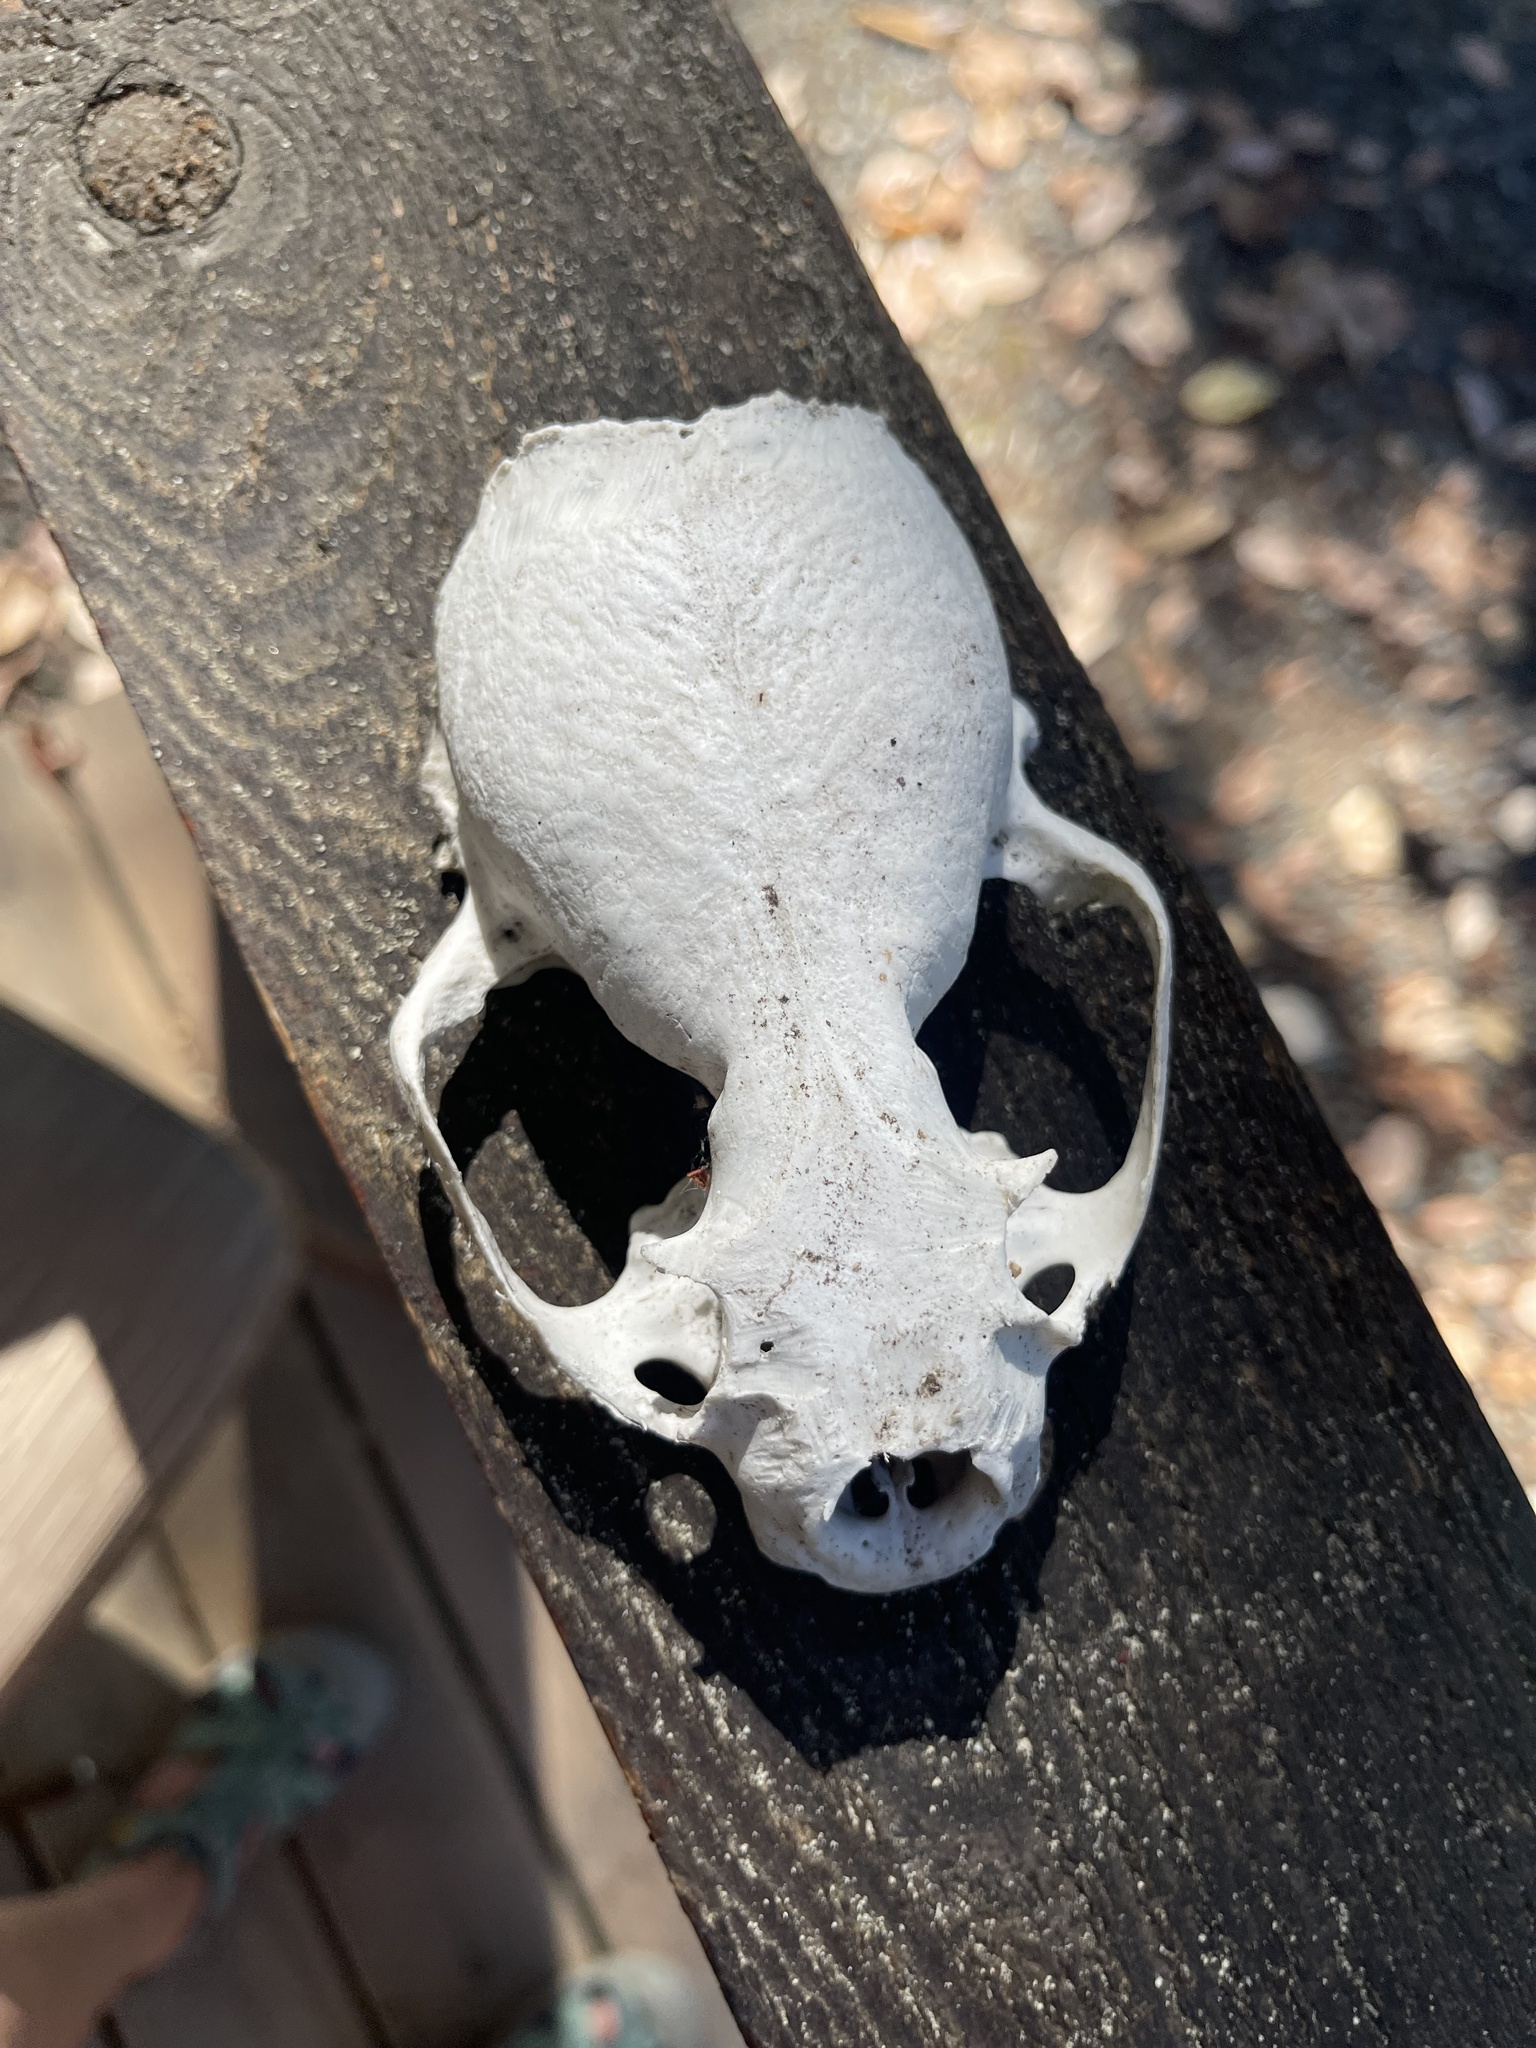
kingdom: Animalia
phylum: Chordata
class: Mammalia
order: Carnivora
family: Mustelidae
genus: Lontra
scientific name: Lontra canadensis
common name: North american river otter
